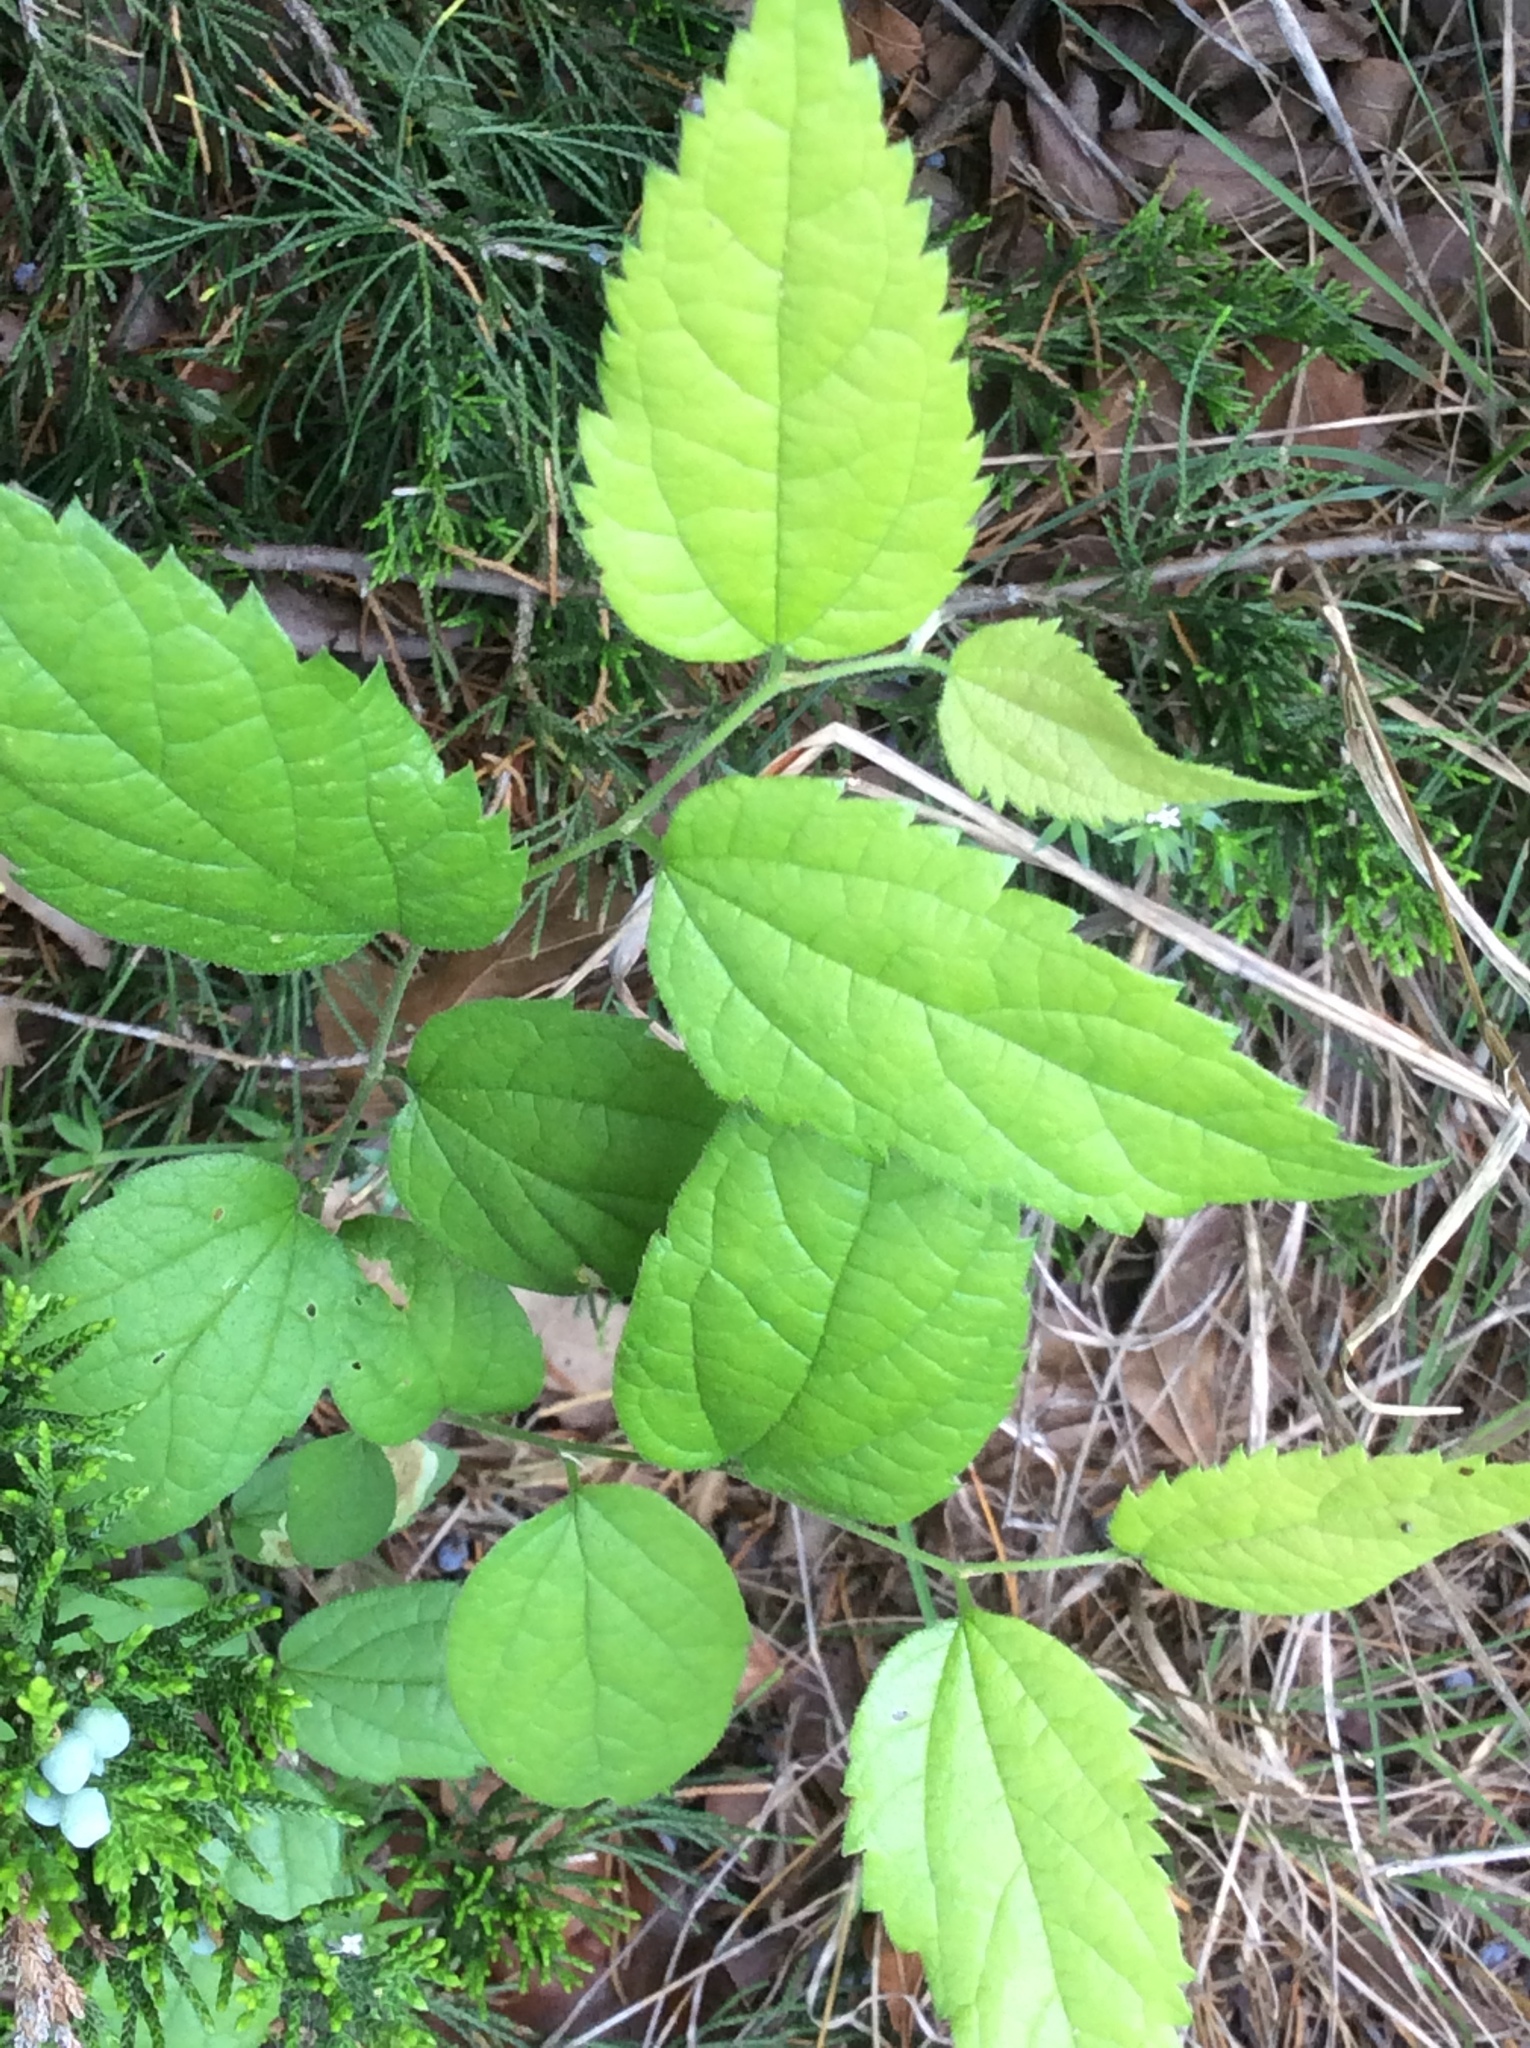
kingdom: Plantae
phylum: Tracheophyta
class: Magnoliopsida
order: Rosales
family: Cannabaceae
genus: Celtis
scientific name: Celtis laevigata
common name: Sugarberry
